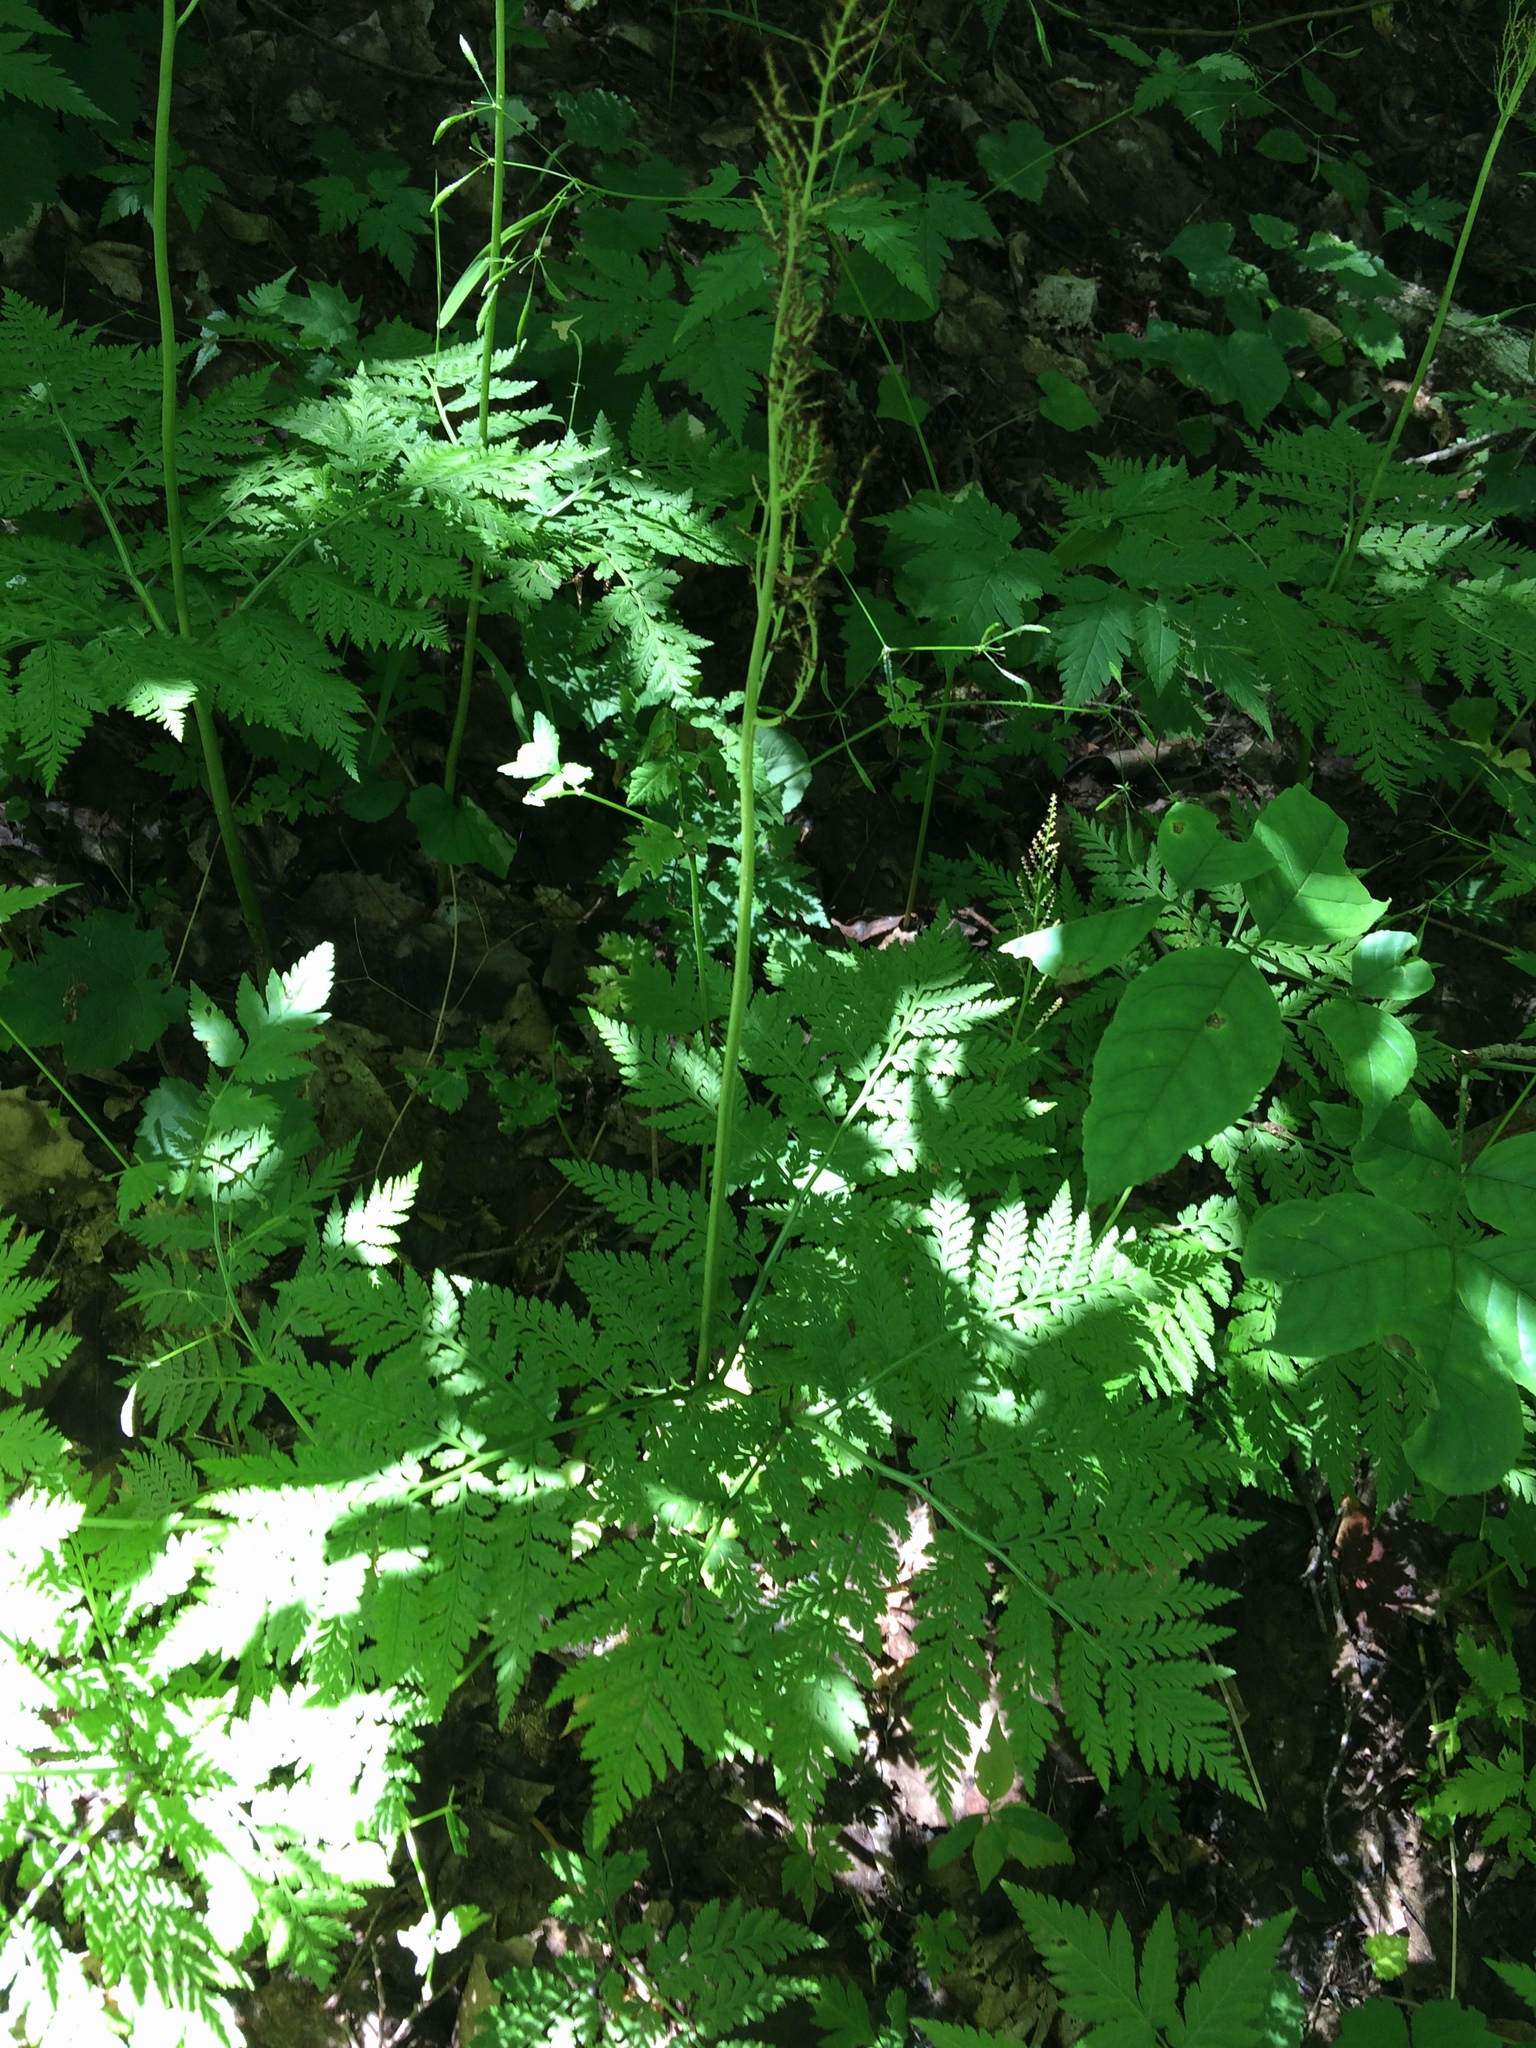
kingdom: Plantae
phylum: Tracheophyta
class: Polypodiopsida
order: Ophioglossales
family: Ophioglossaceae
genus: Botrypus
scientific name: Botrypus virginianus
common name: Common grapefern
